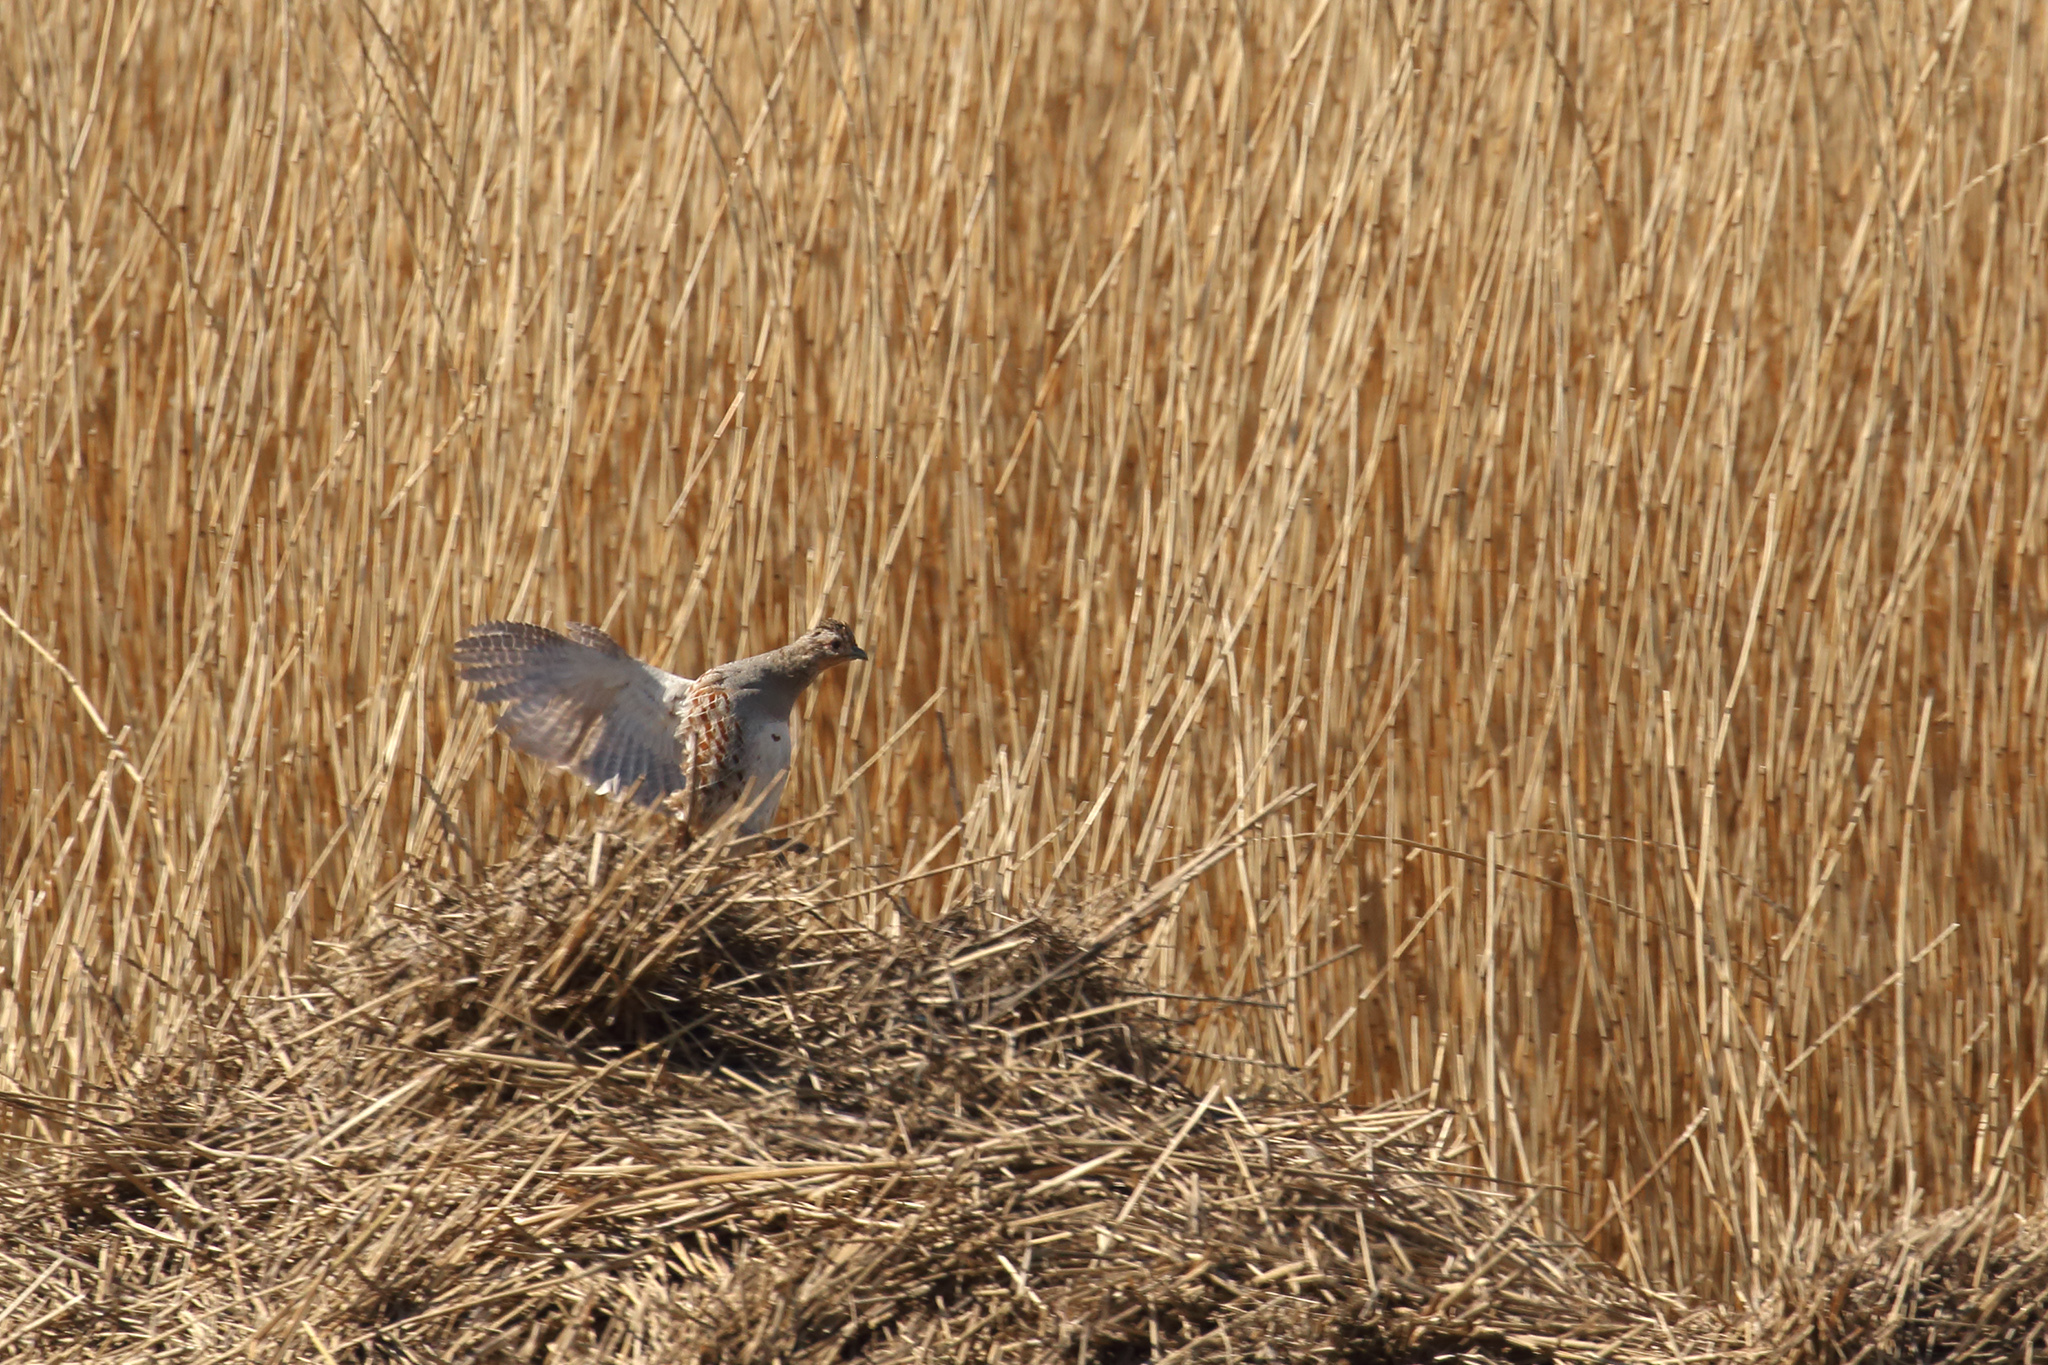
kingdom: Animalia
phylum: Chordata
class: Aves
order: Galliformes
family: Phasianidae
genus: Perdix
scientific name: Perdix perdix
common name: Grey partridge
